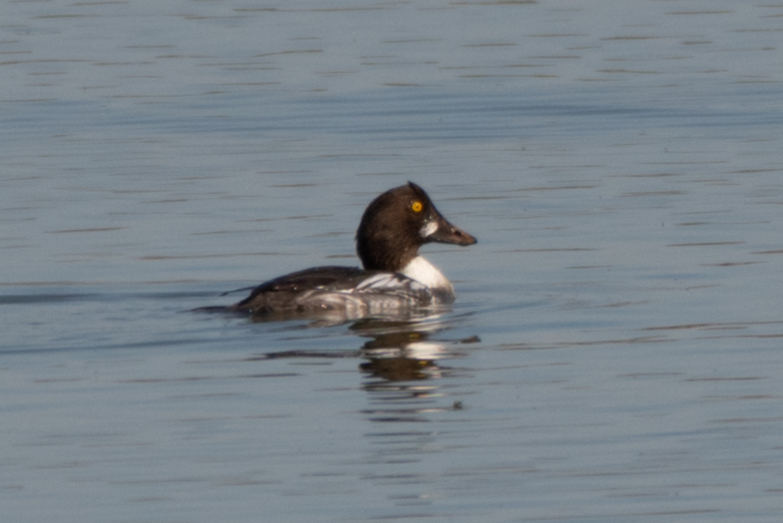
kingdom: Animalia
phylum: Chordata
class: Aves
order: Anseriformes
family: Anatidae
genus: Bucephala
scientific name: Bucephala clangula
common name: Common goldeneye
